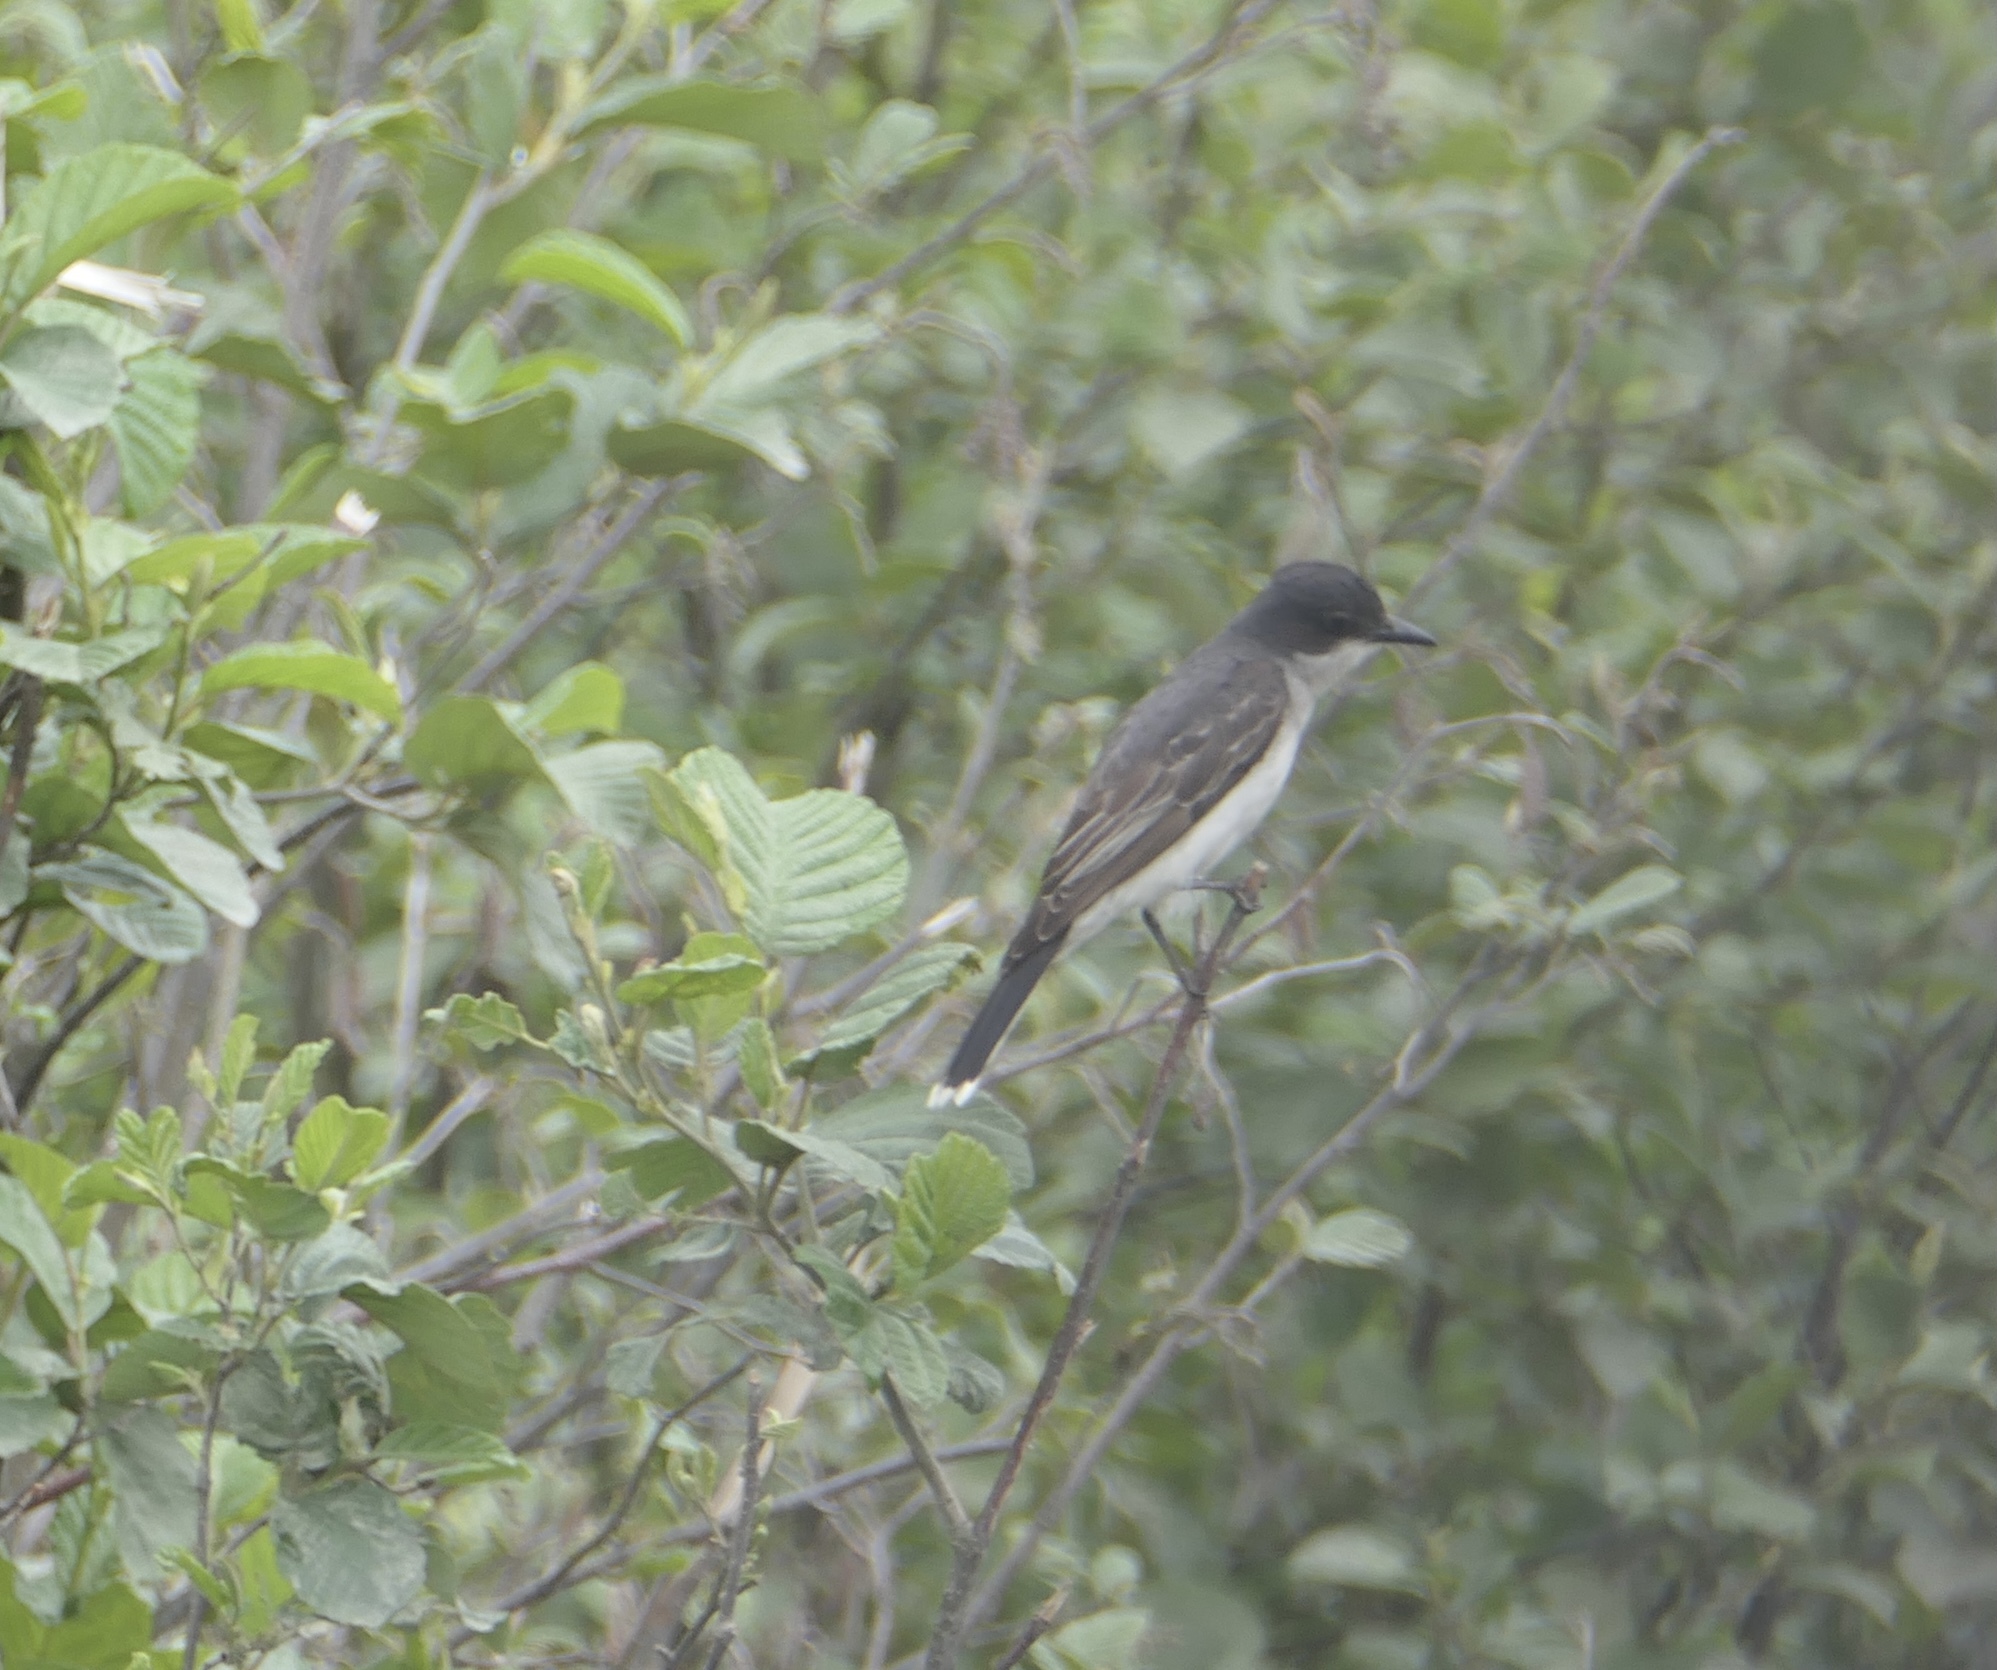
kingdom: Animalia
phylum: Chordata
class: Aves
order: Passeriformes
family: Tyrannidae
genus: Tyrannus
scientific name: Tyrannus tyrannus
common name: Eastern kingbird
